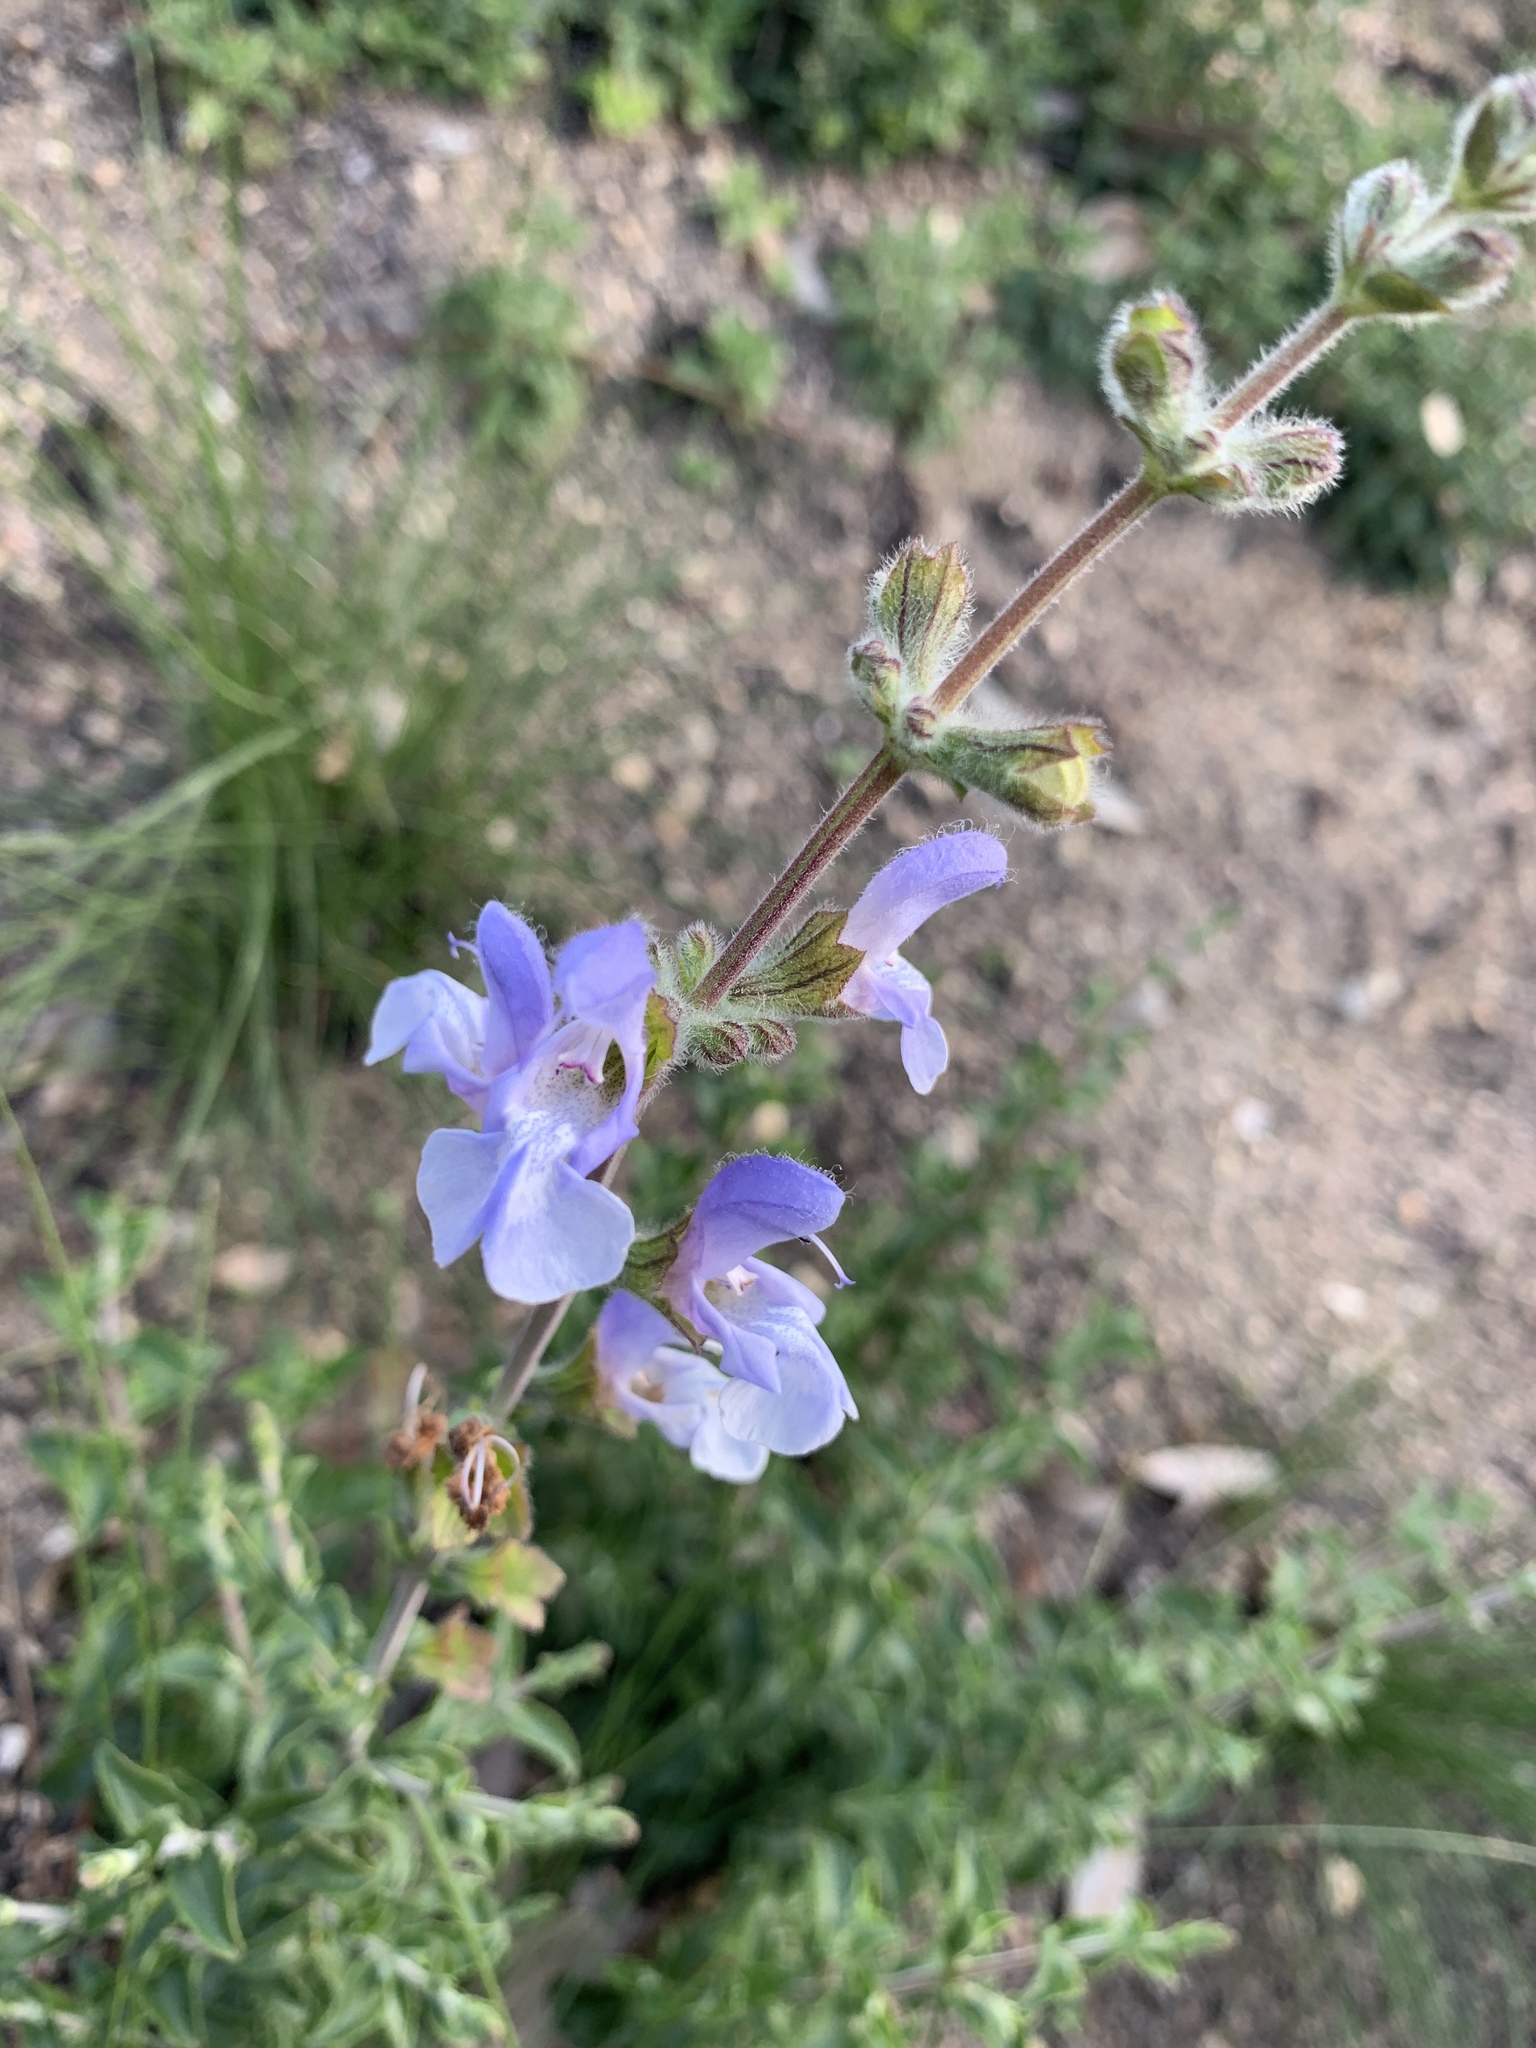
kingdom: Plantae
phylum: Tracheophyta
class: Magnoliopsida
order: Lamiales
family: Lamiaceae
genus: Salvia
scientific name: Salvia africana
